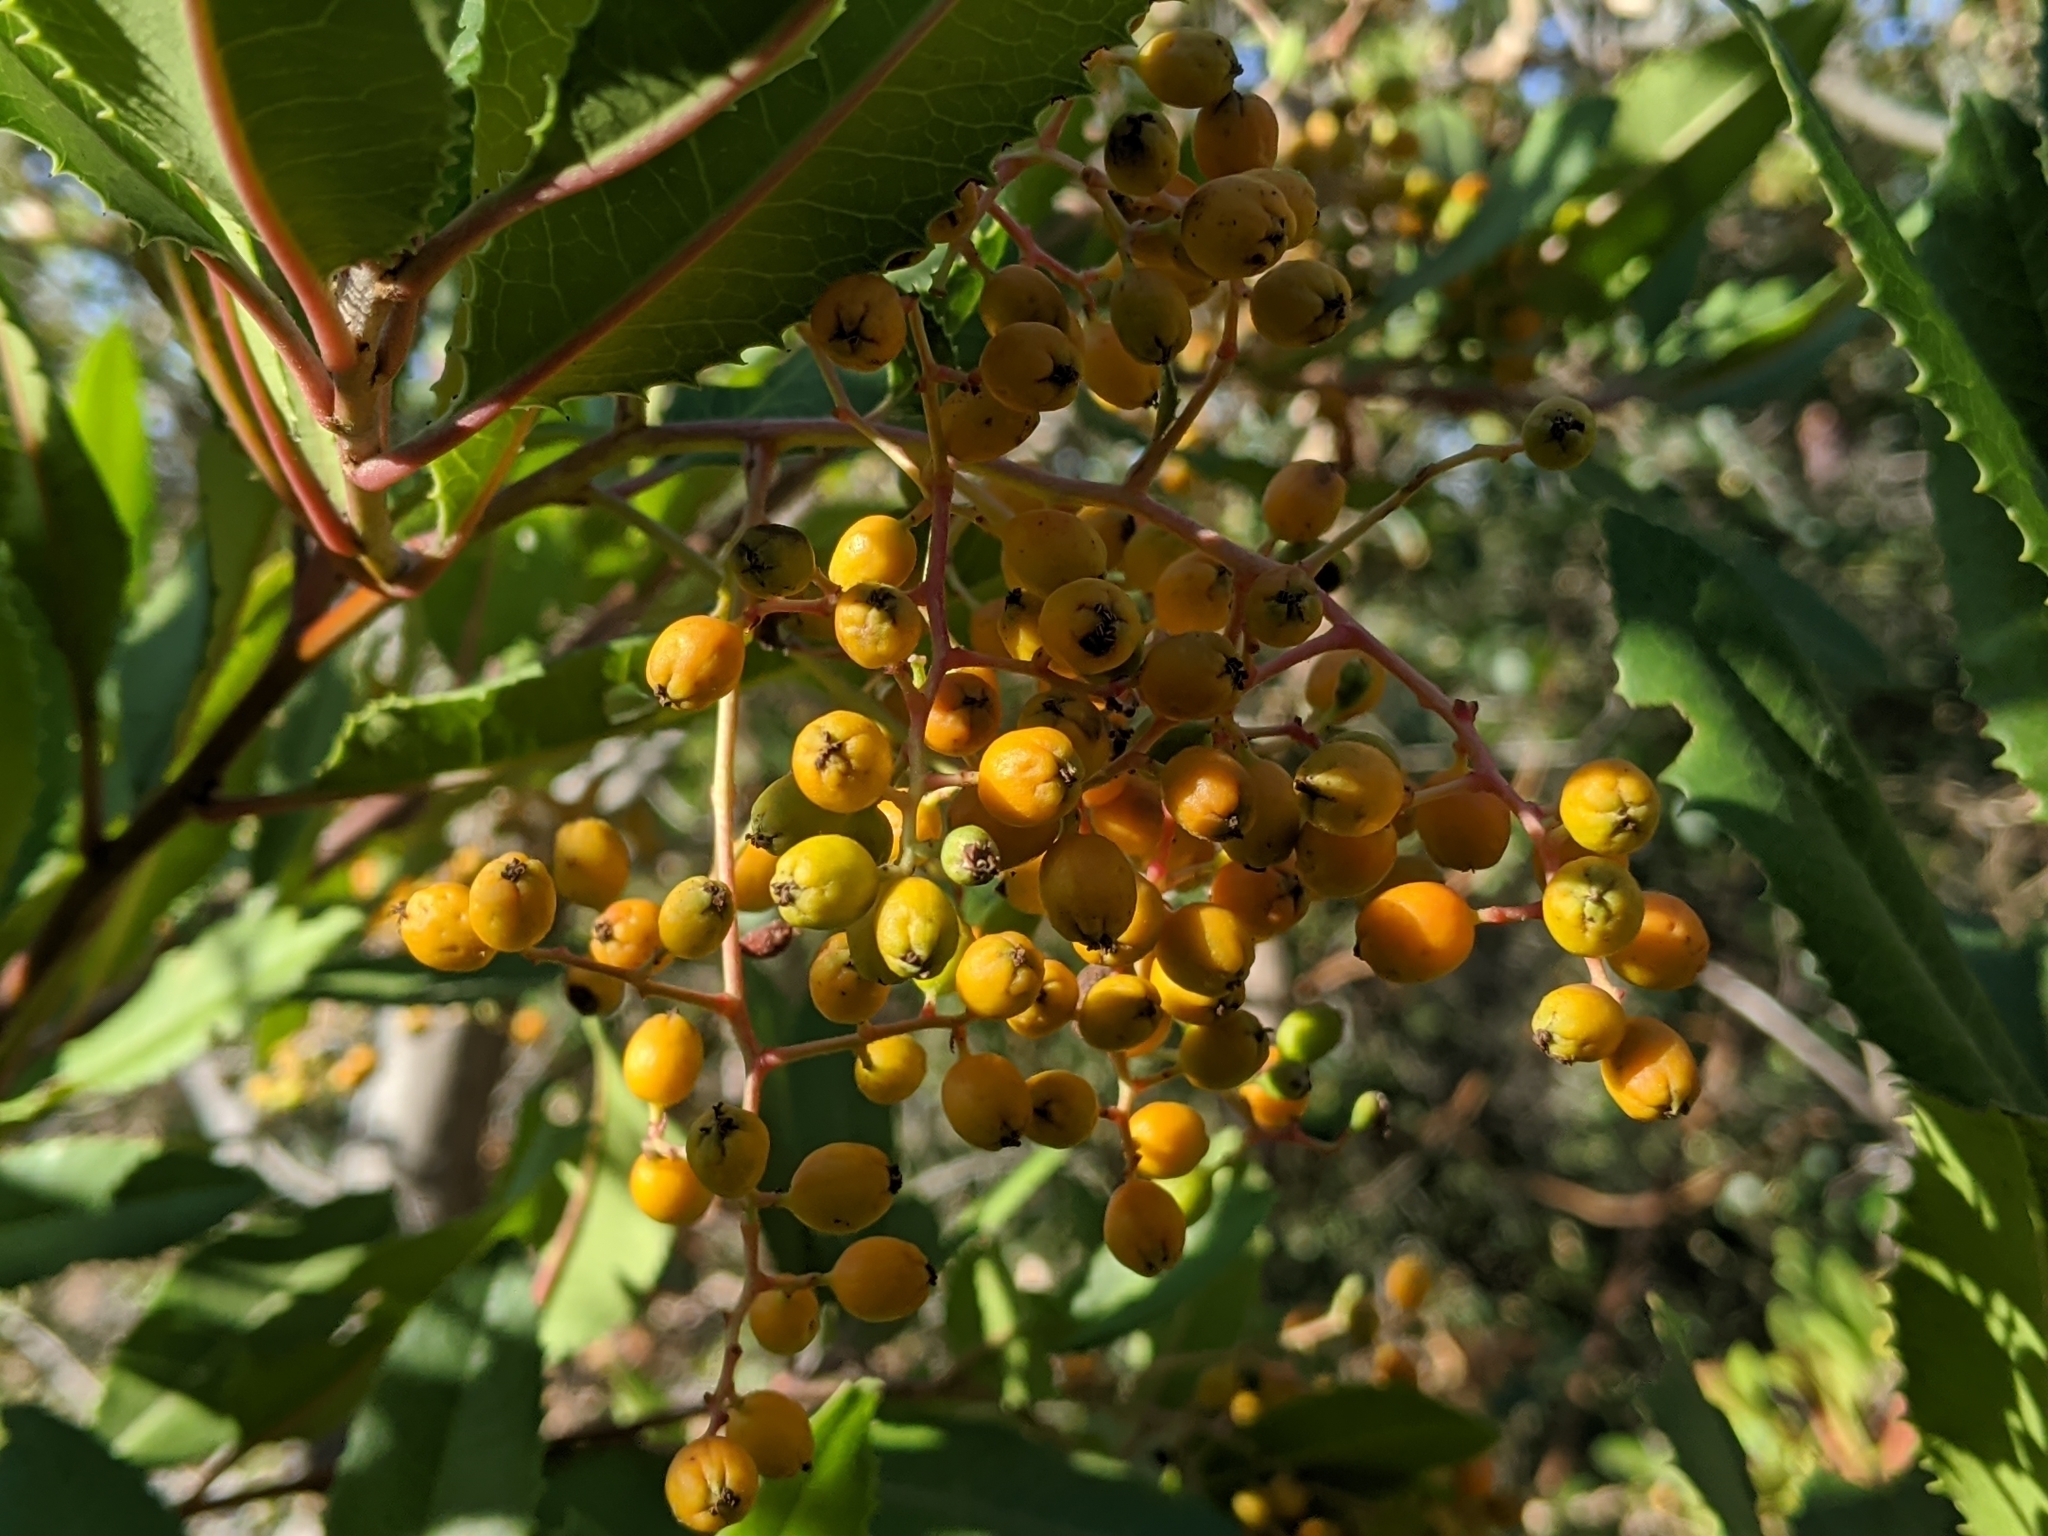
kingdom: Plantae
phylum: Tracheophyta
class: Magnoliopsida
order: Rosales
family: Rosaceae
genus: Heteromeles
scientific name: Heteromeles arbutifolia
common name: California-holly
